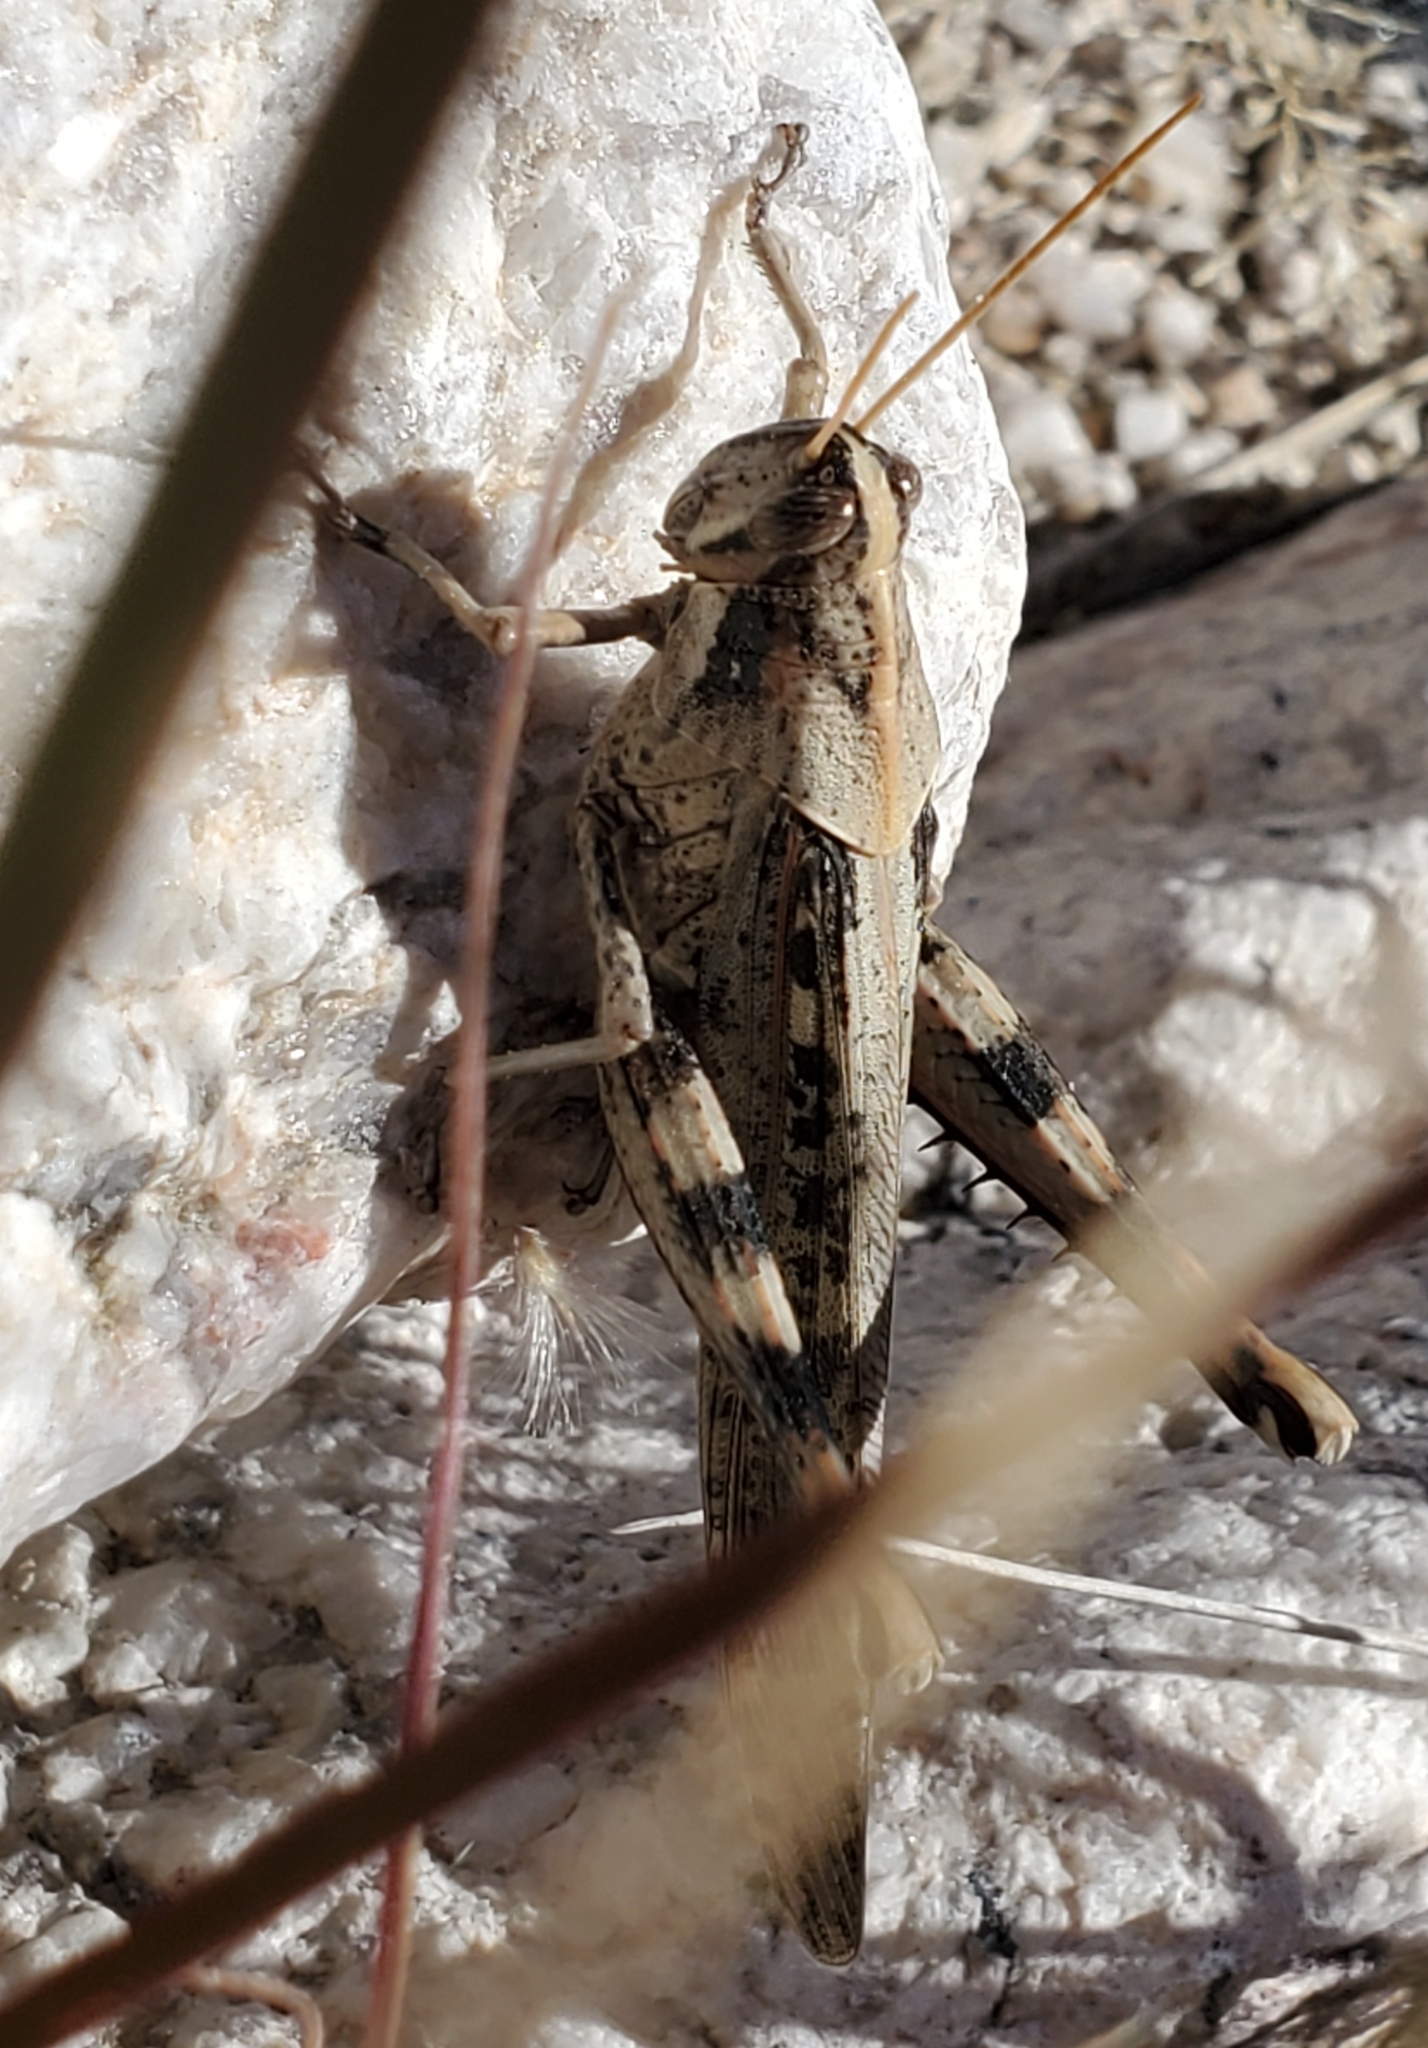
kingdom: Animalia
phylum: Arthropoda
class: Insecta
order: Orthoptera
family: Acrididae
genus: Schistocerca
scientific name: Schistocerca nitens
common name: Vagrant grasshopper
